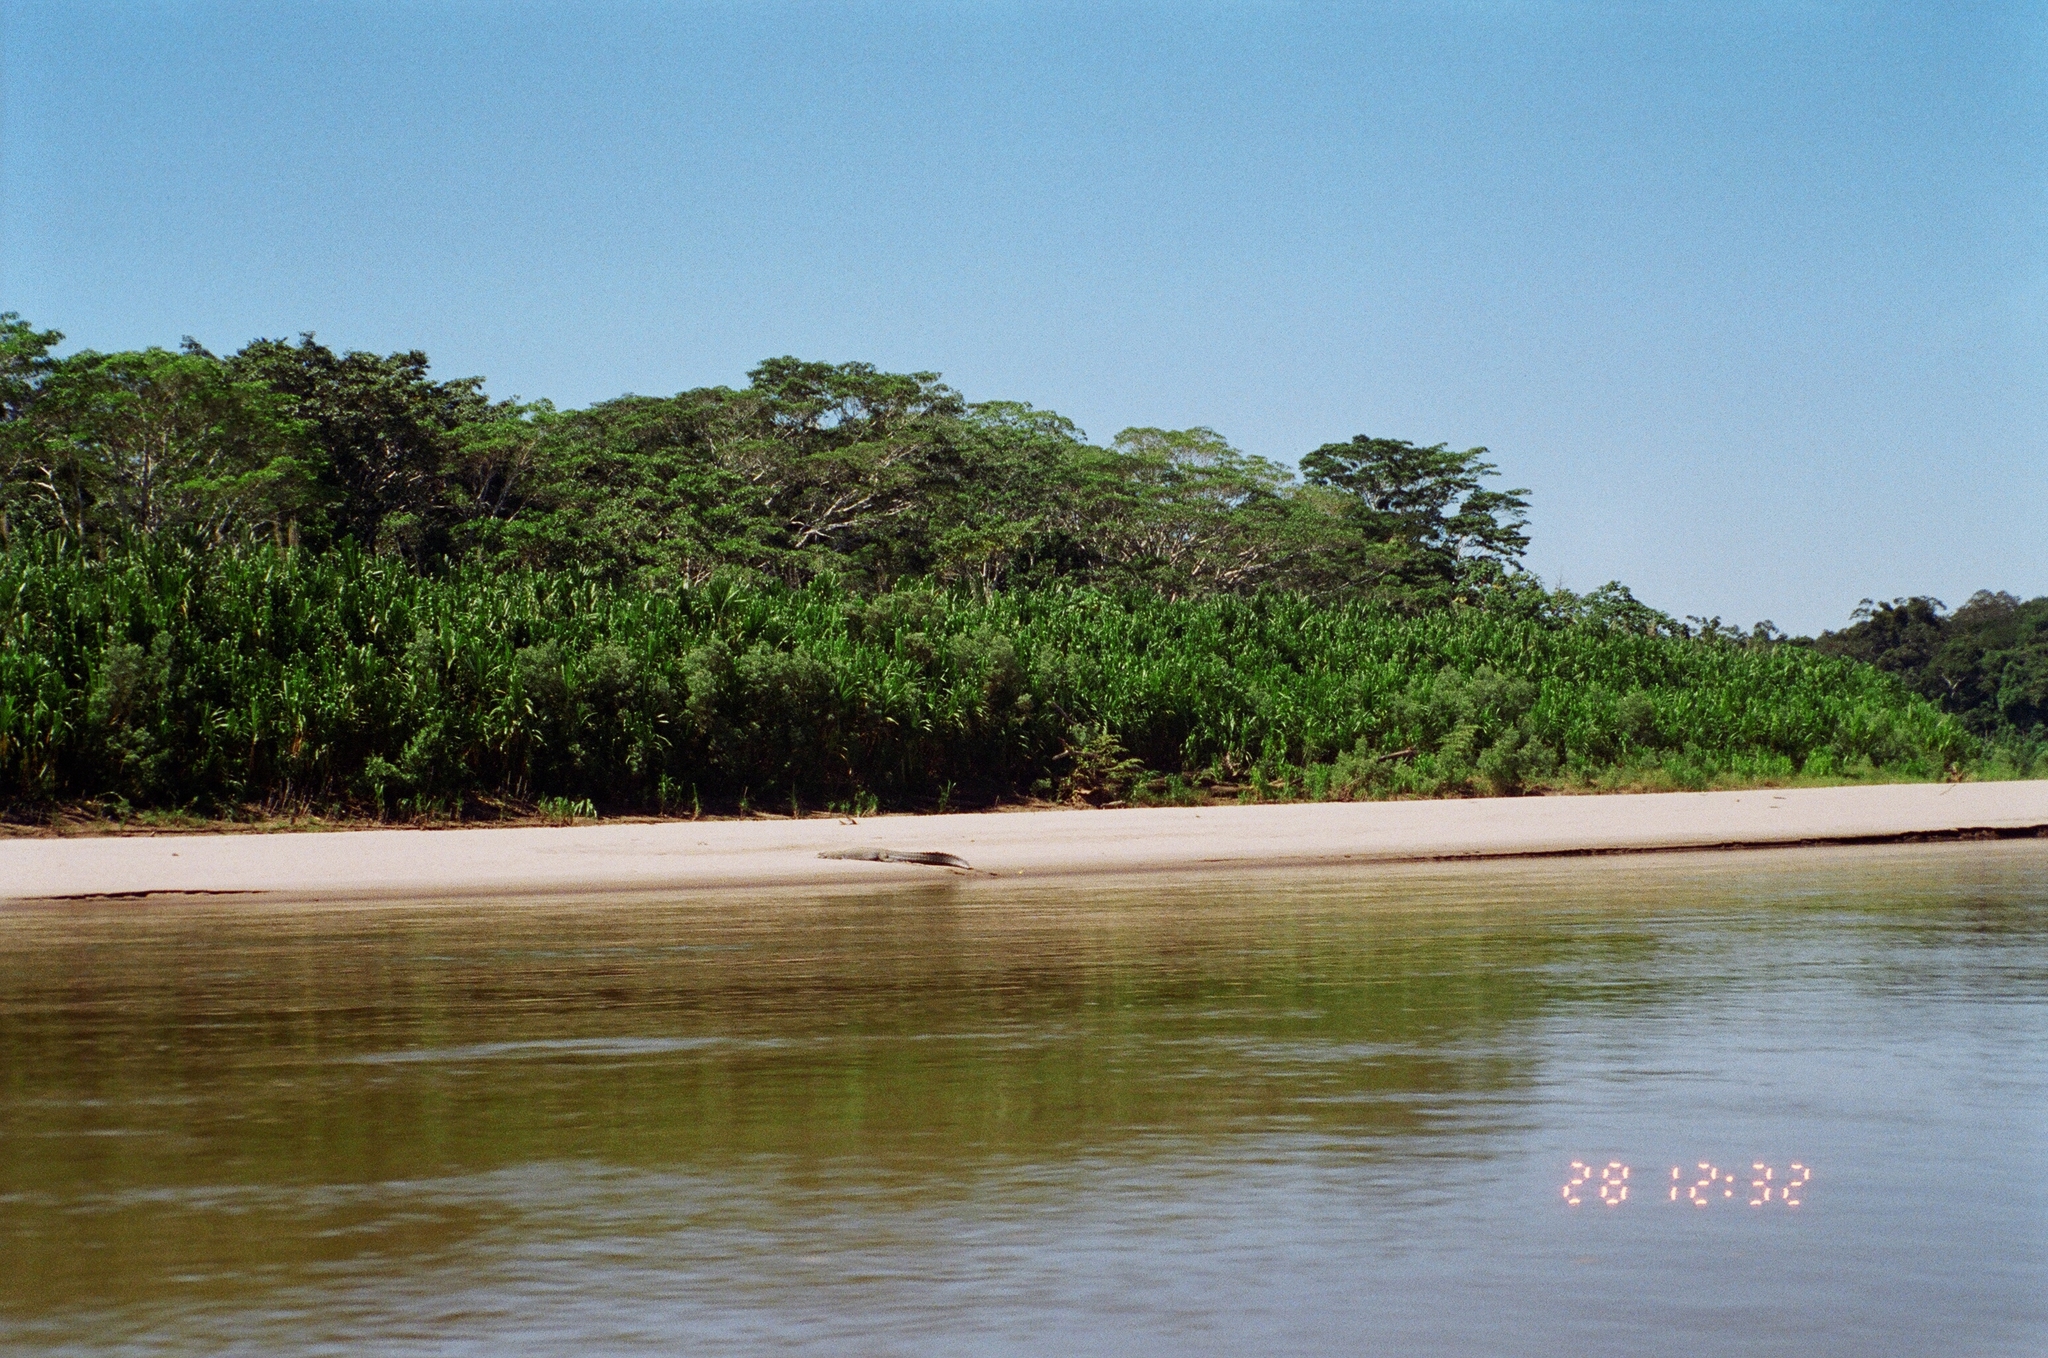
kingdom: Animalia
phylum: Chordata
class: Crocodylia
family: Alligatoridae
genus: Melanosuchus
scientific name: Melanosuchus niger
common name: Black caiman
